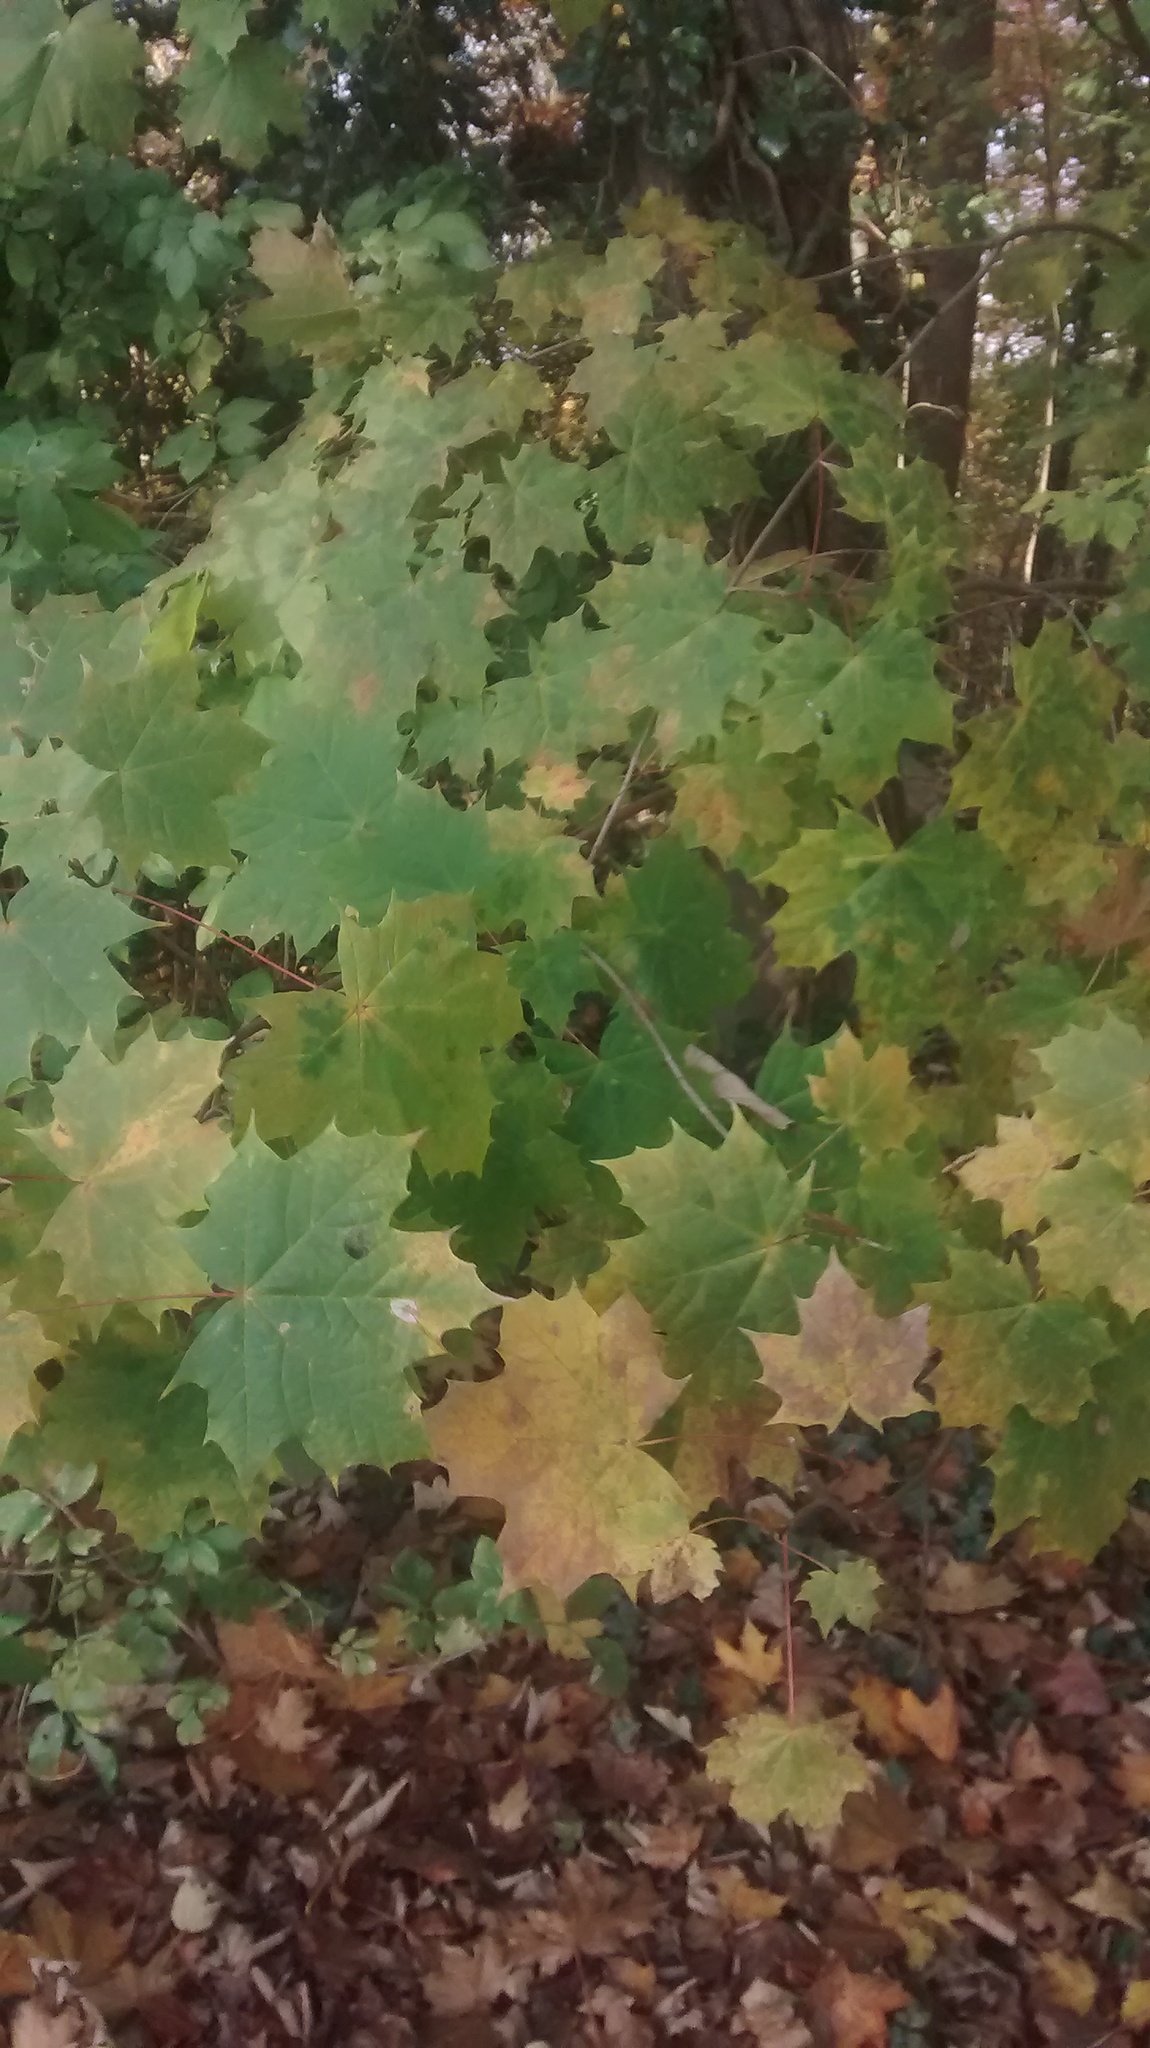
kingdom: Plantae
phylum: Tracheophyta
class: Magnoliopsida
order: Sapindales
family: Sapindaceae
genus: Acer
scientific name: Acer platanoides
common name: Norway maple
